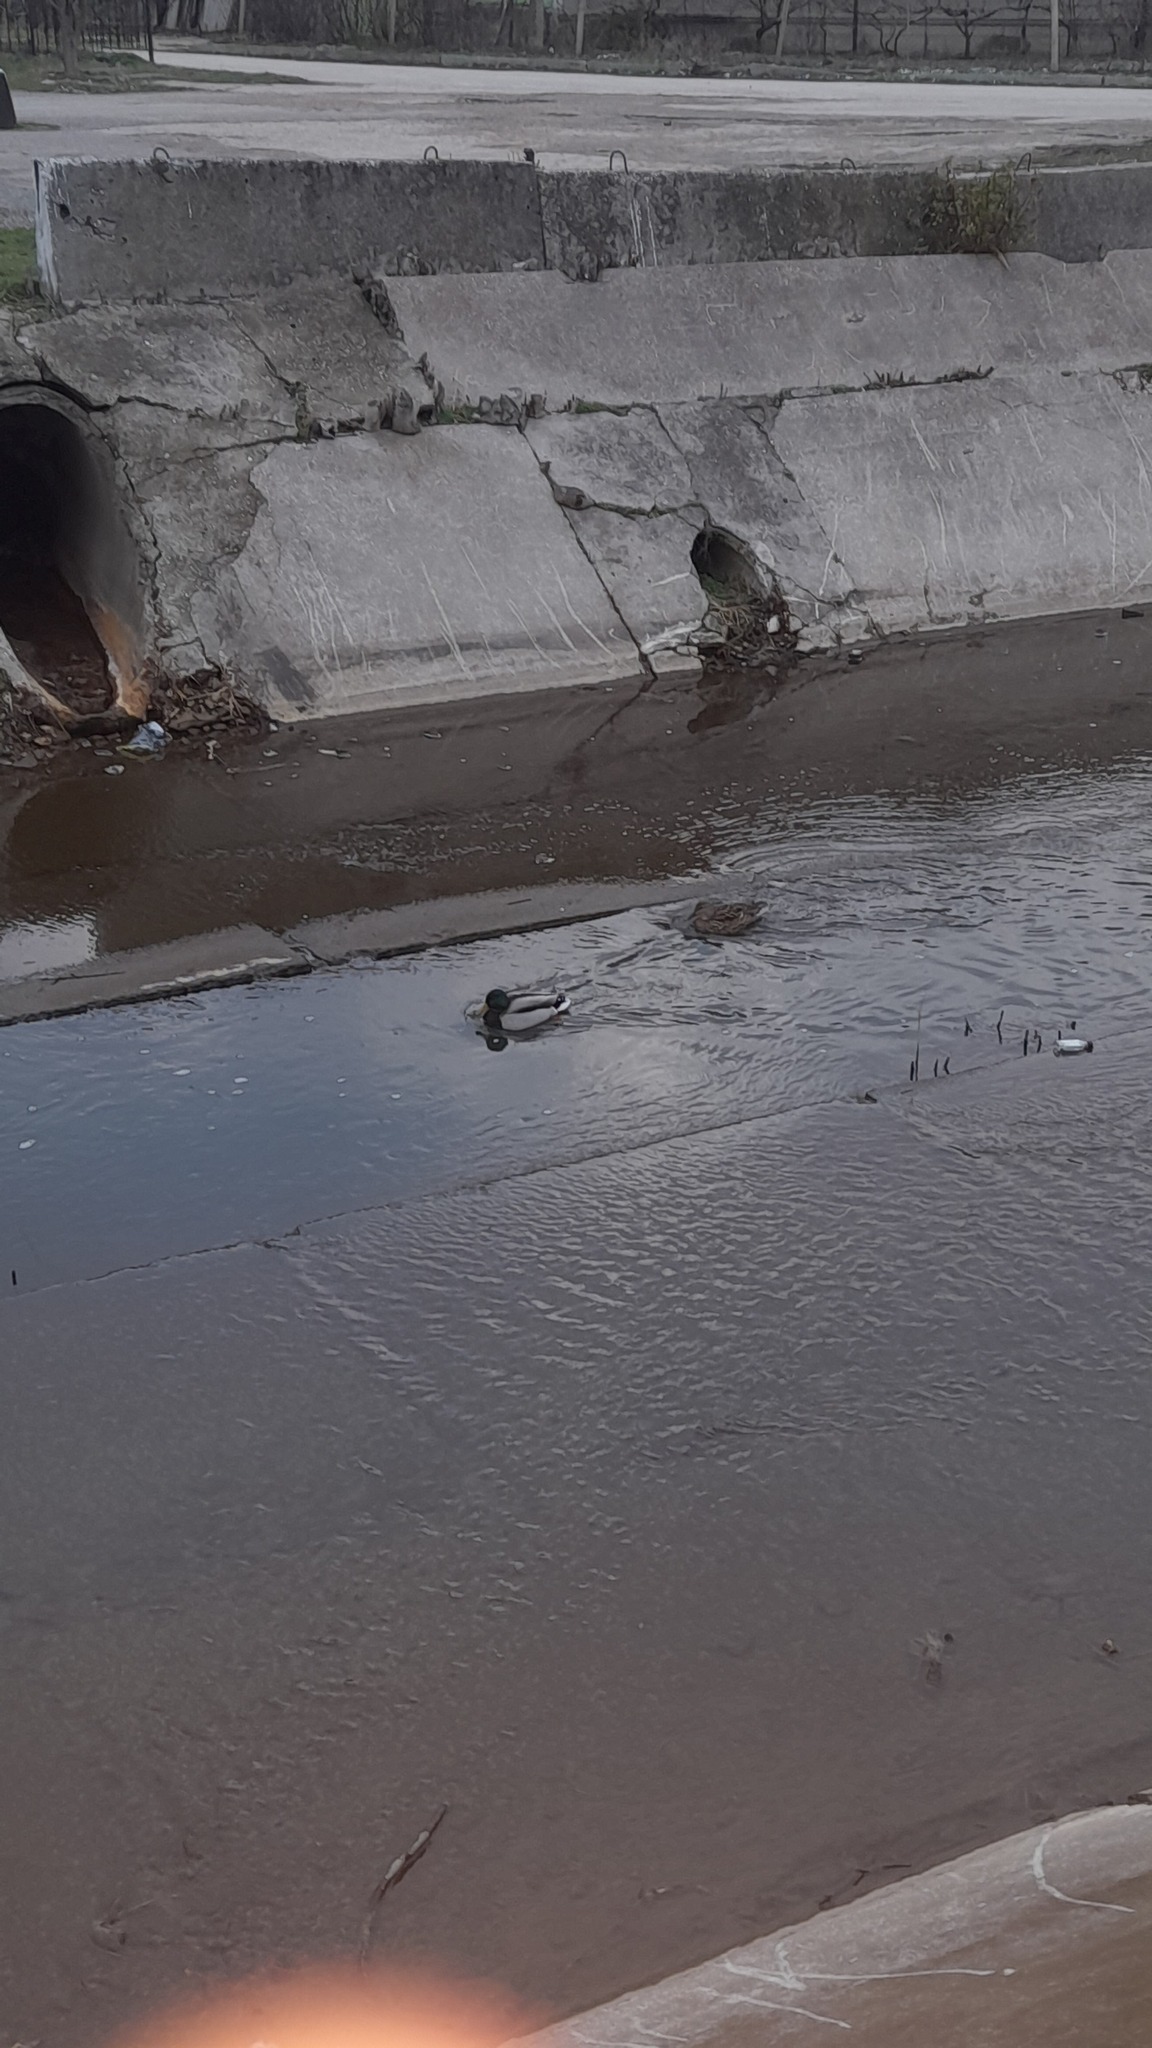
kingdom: Animalia
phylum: Chordata
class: Aves
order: Anseriformes
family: Anatidae
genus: Anas
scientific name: Anas platyrhynchos
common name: Mallard
